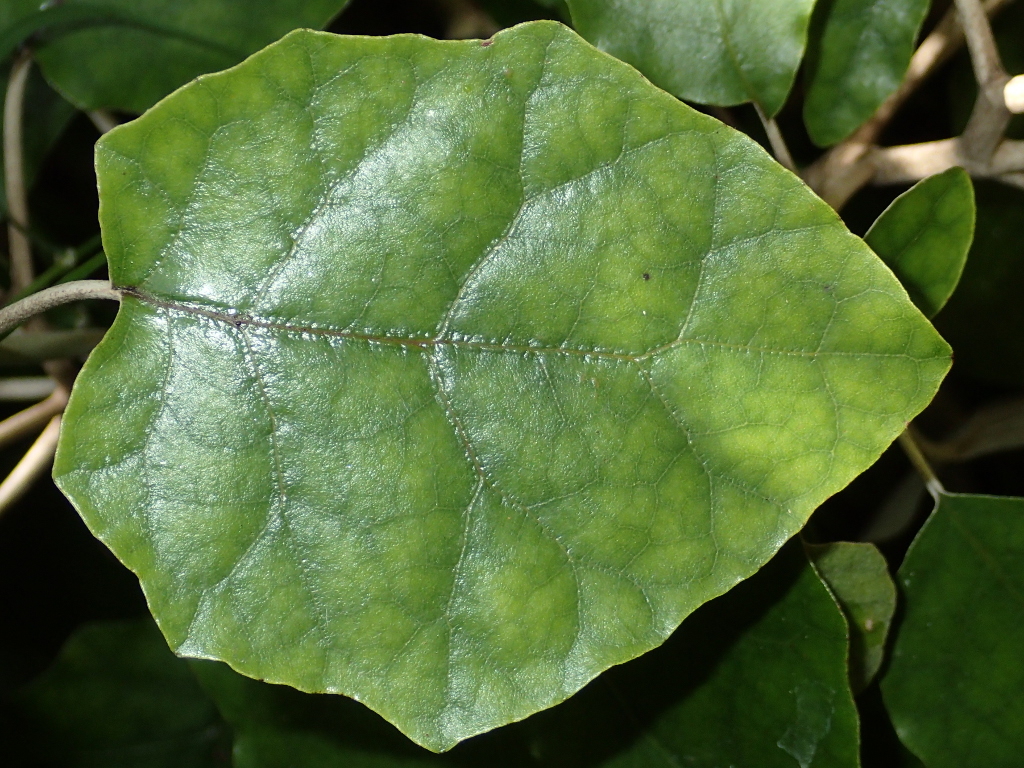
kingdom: Plantae
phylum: Tracheophyta
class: Magnoliopsida
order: Asterales
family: Asteraceae
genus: Brachyglottis
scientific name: Brachyglottis repanda
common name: Hedge ragwort
